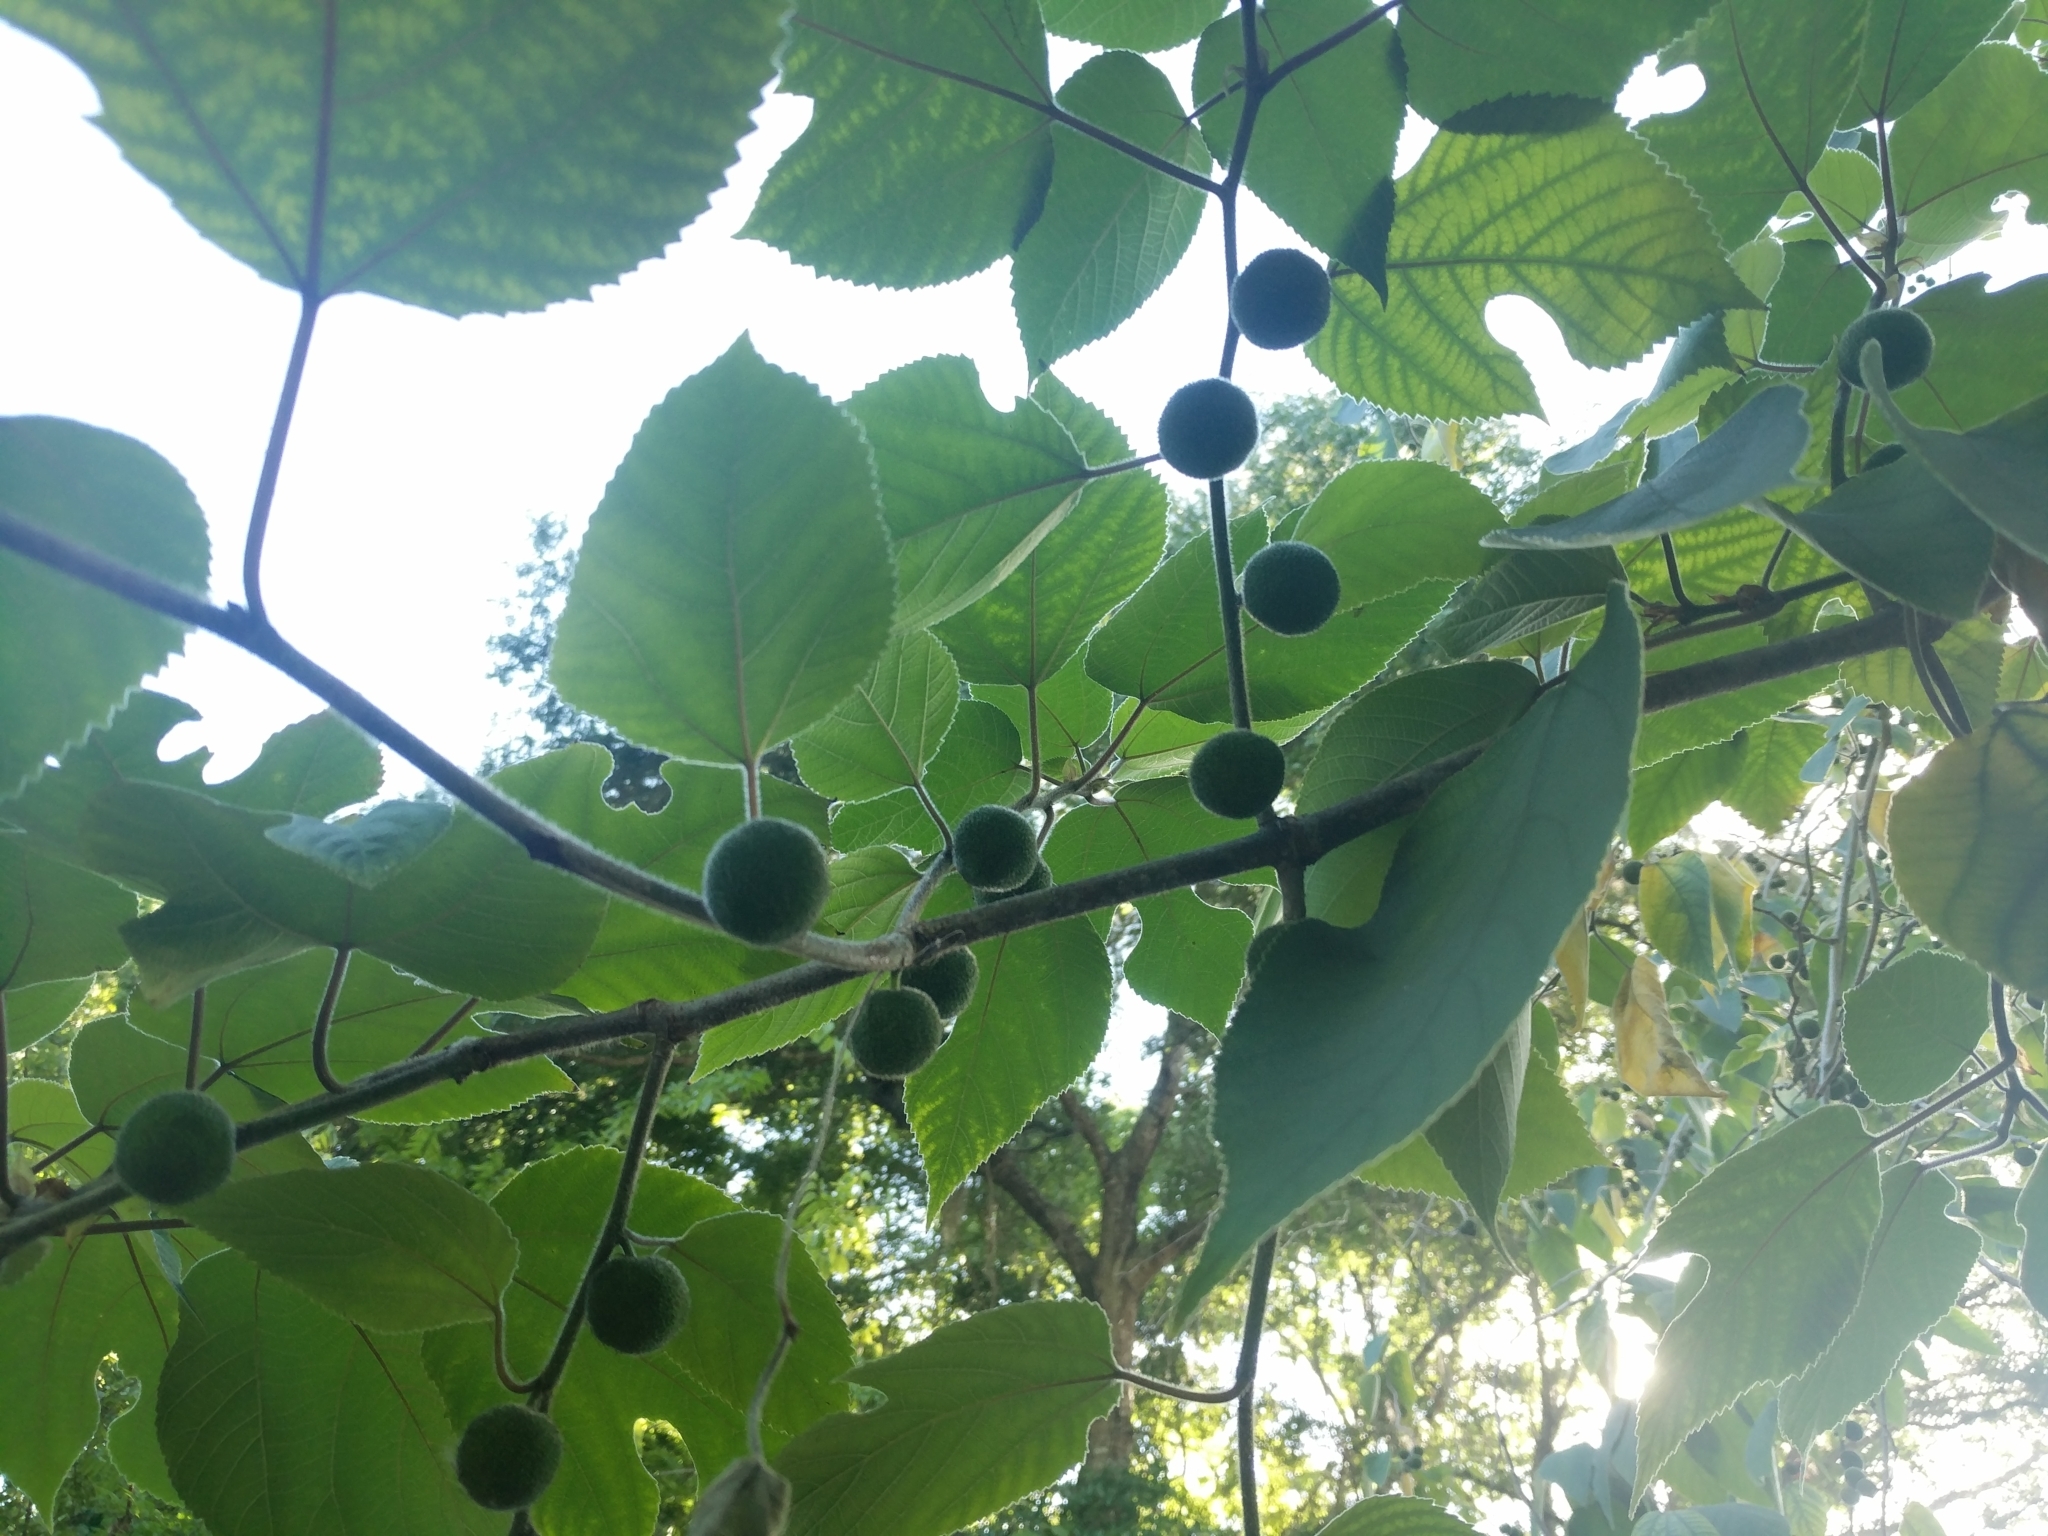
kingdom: Plantae
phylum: Tracheophyta
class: Magnoliopsida
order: Rosales
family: Moraceae
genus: Broussonetia
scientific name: Broussonetia papyrifera
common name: Paper mulberry
